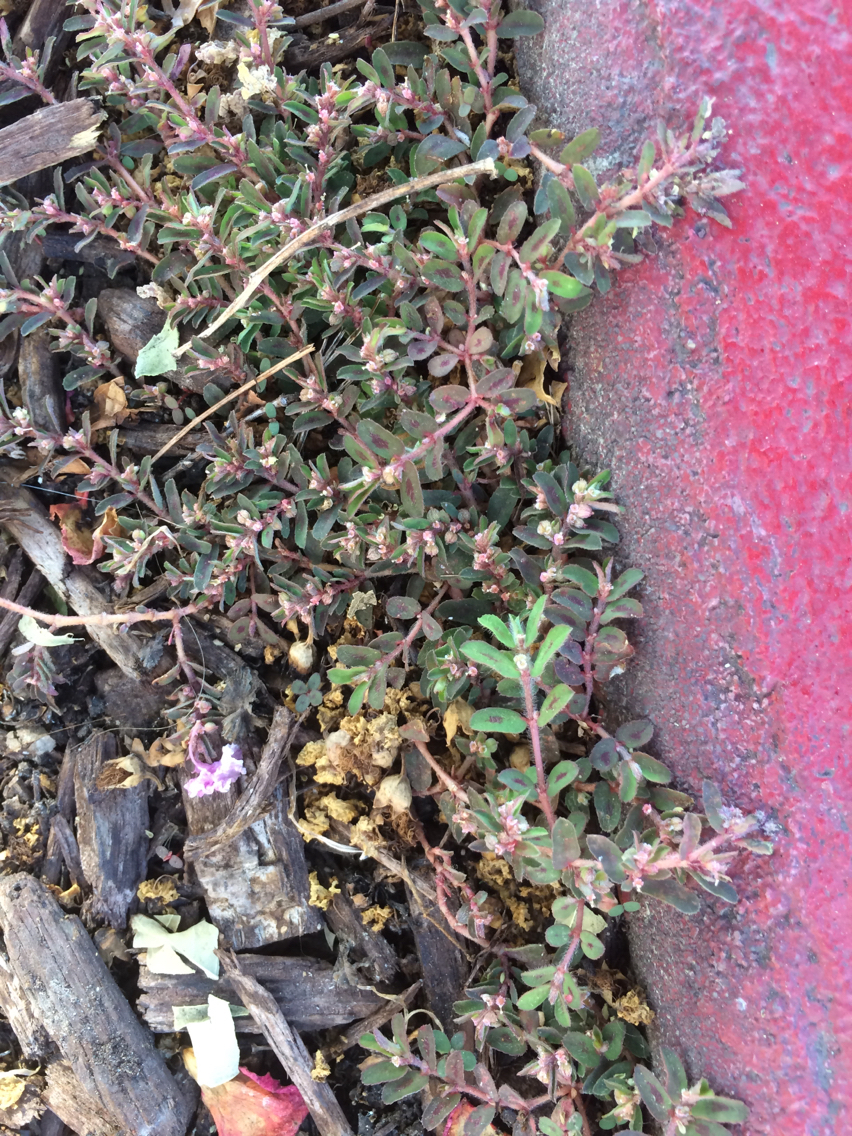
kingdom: Plantae
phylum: Tracheophyta
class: Magnoliopsida
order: Malpighiales
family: Euphorbiaceae
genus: Euphorbia
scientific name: Euphorbia maculata
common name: Spotted spurge
